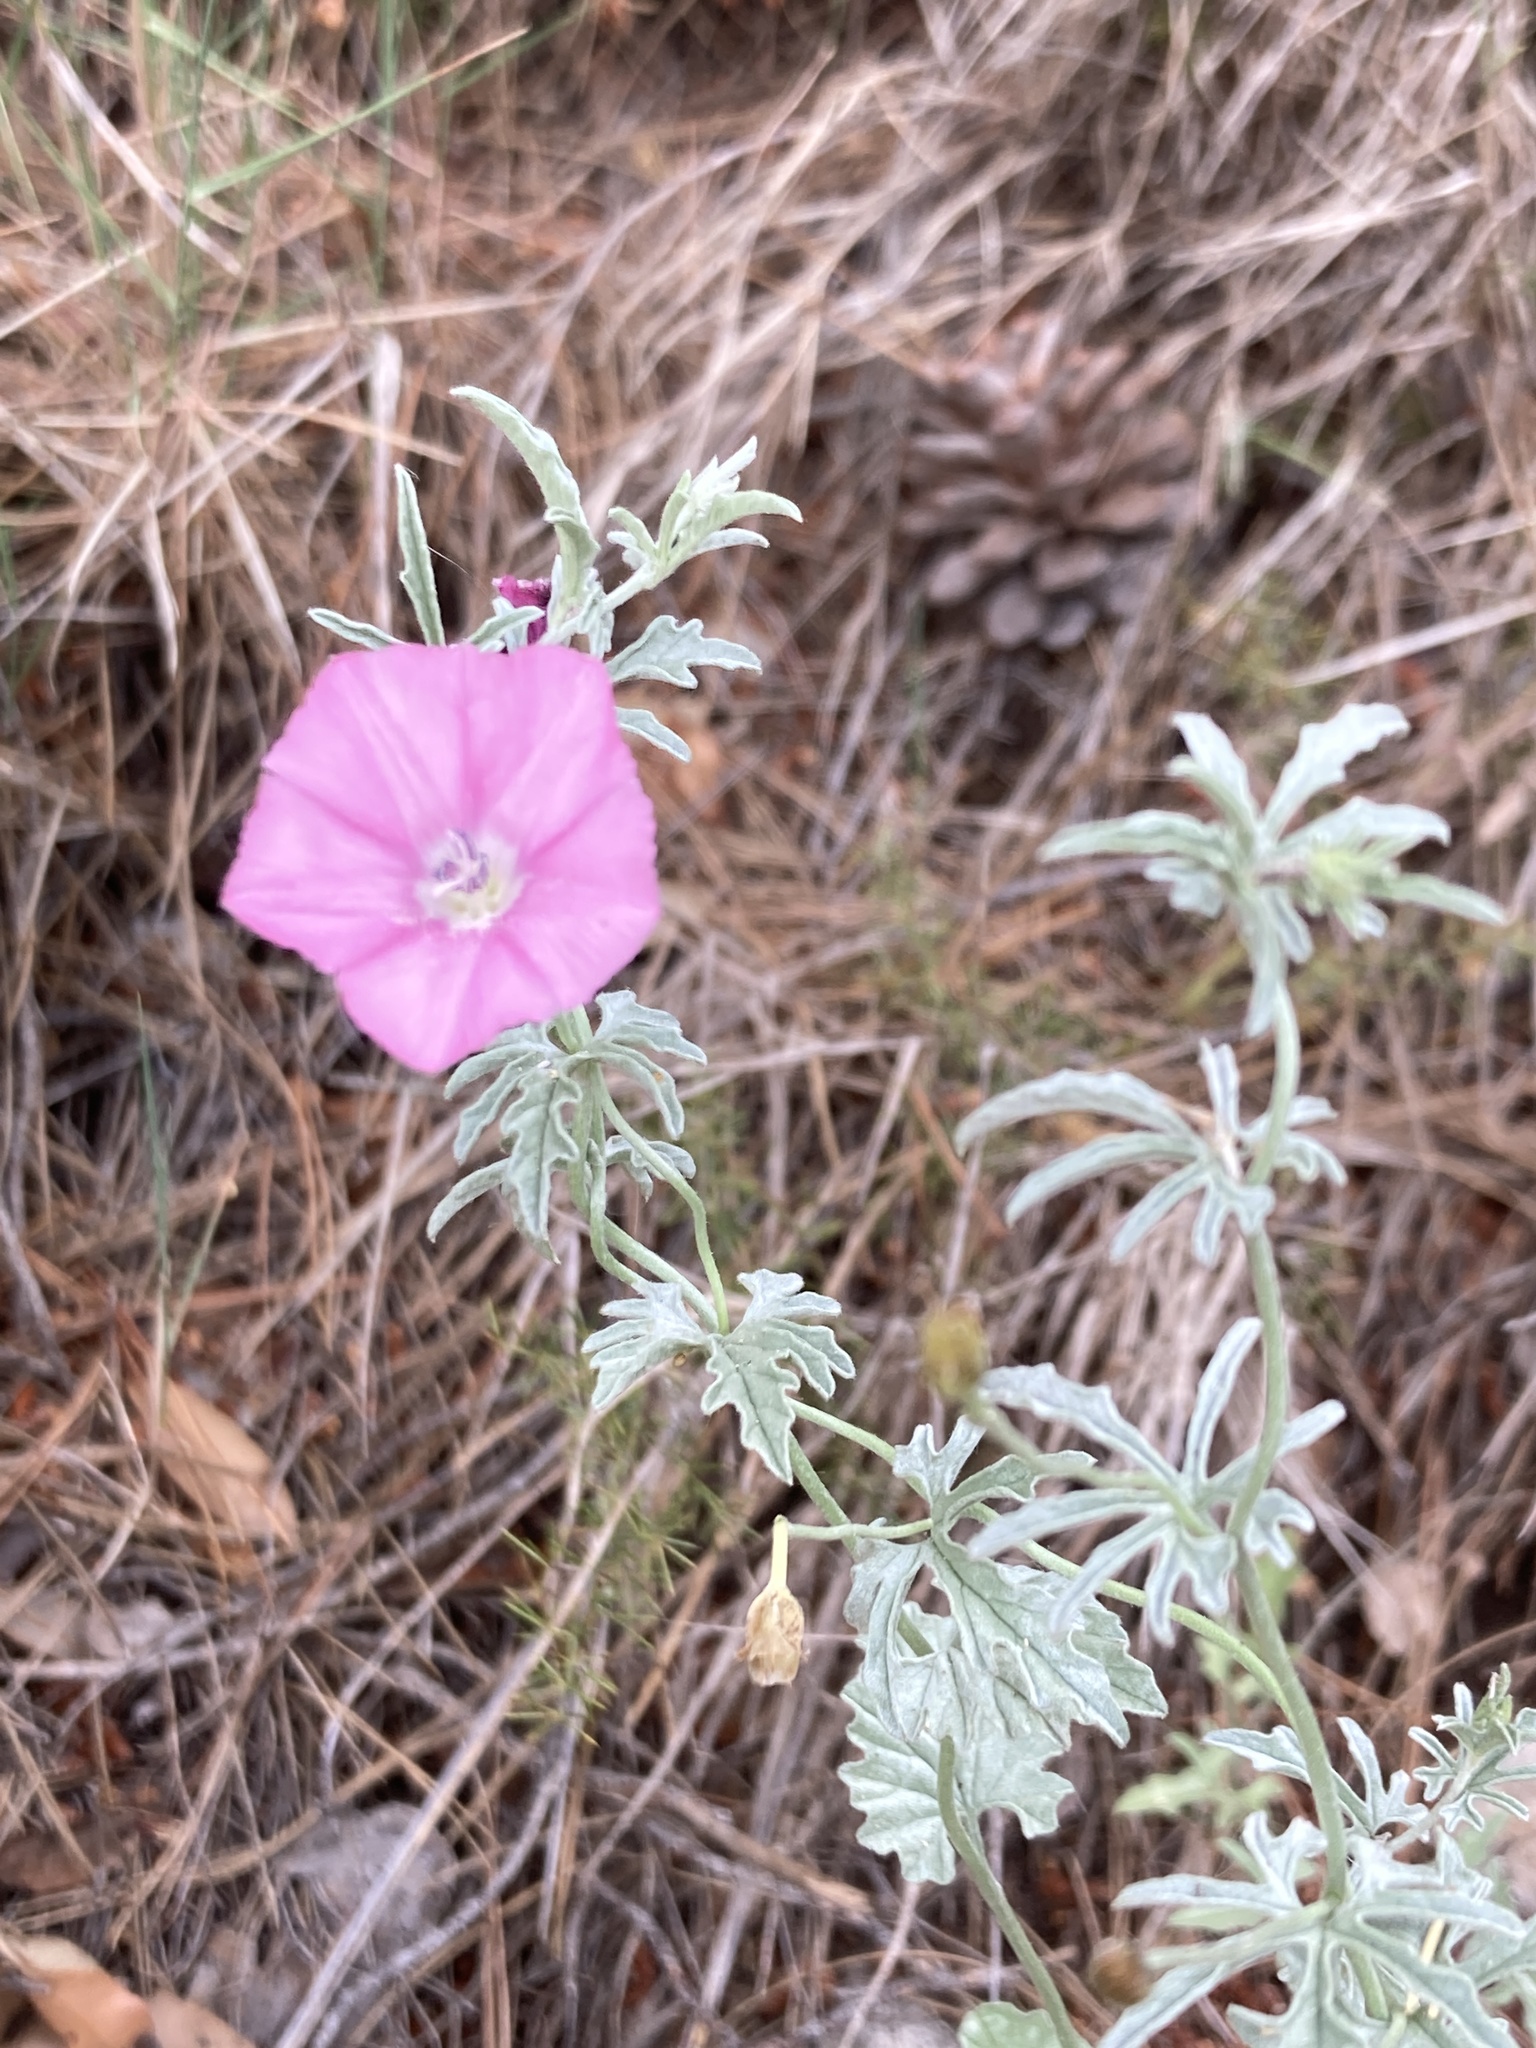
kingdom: Plantae
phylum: Tracheophyta
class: Magnoliopsida
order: Solanales
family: Convolvulaceae
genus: Convolvulus
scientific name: Convolvulus elegantissimus
